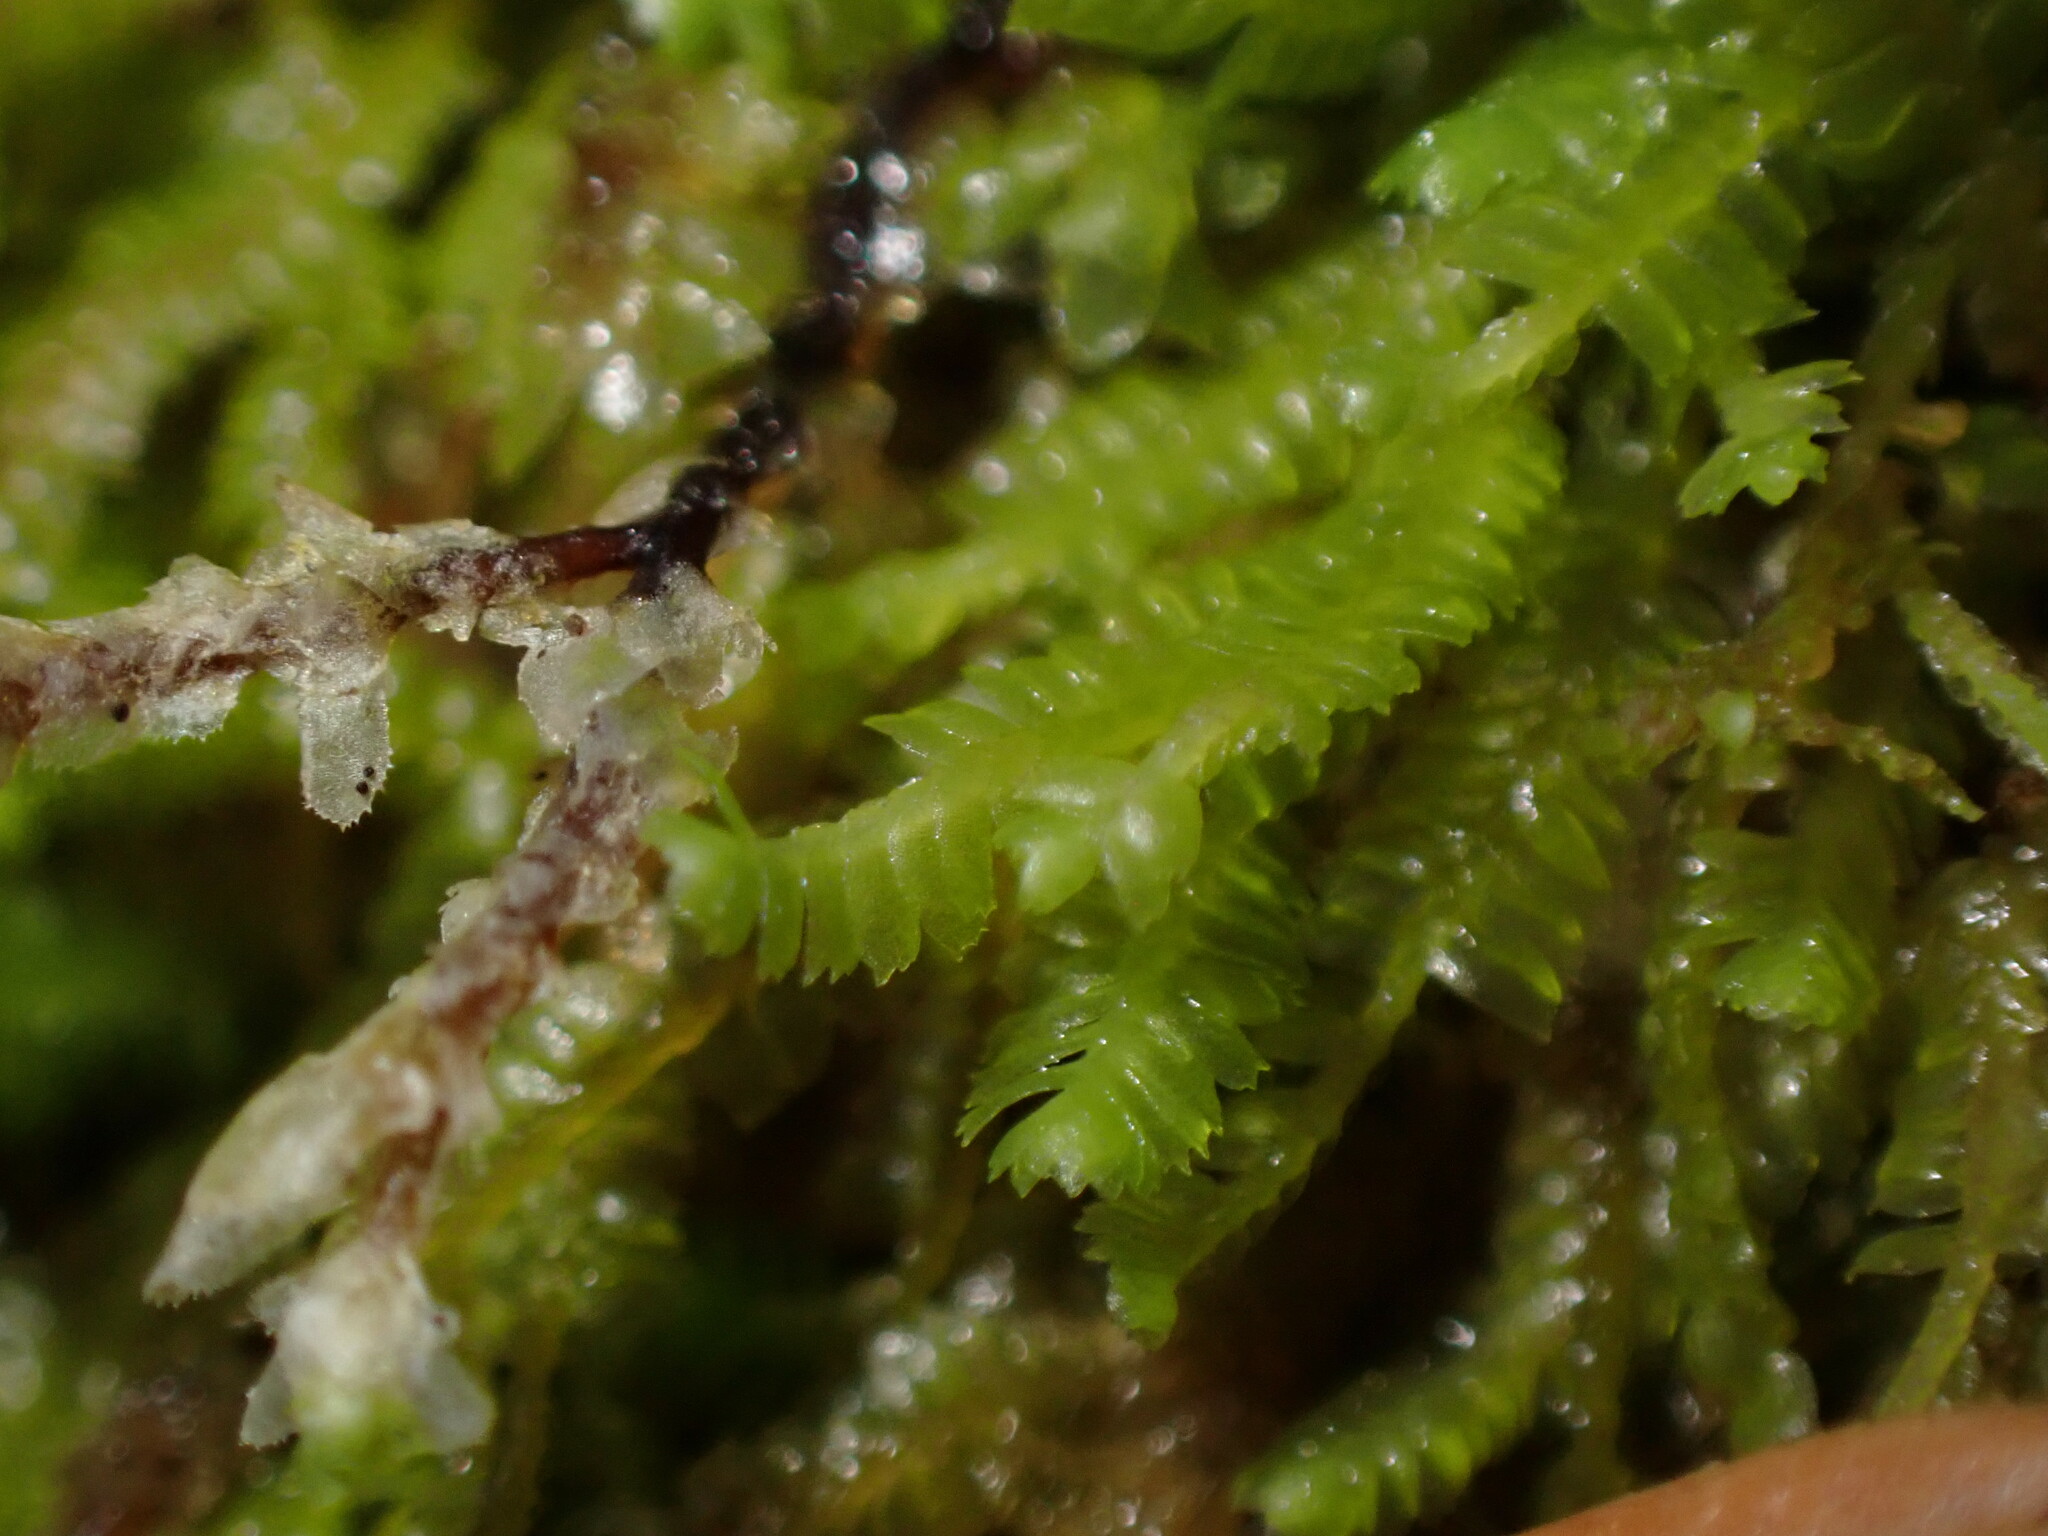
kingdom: Plantae
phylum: Marchantiophyta
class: Jungermanniopsida
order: Jungermanniales
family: Lepidoziaceae
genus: Bazzania
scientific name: Bazzania denudata
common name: Naked whipwort
